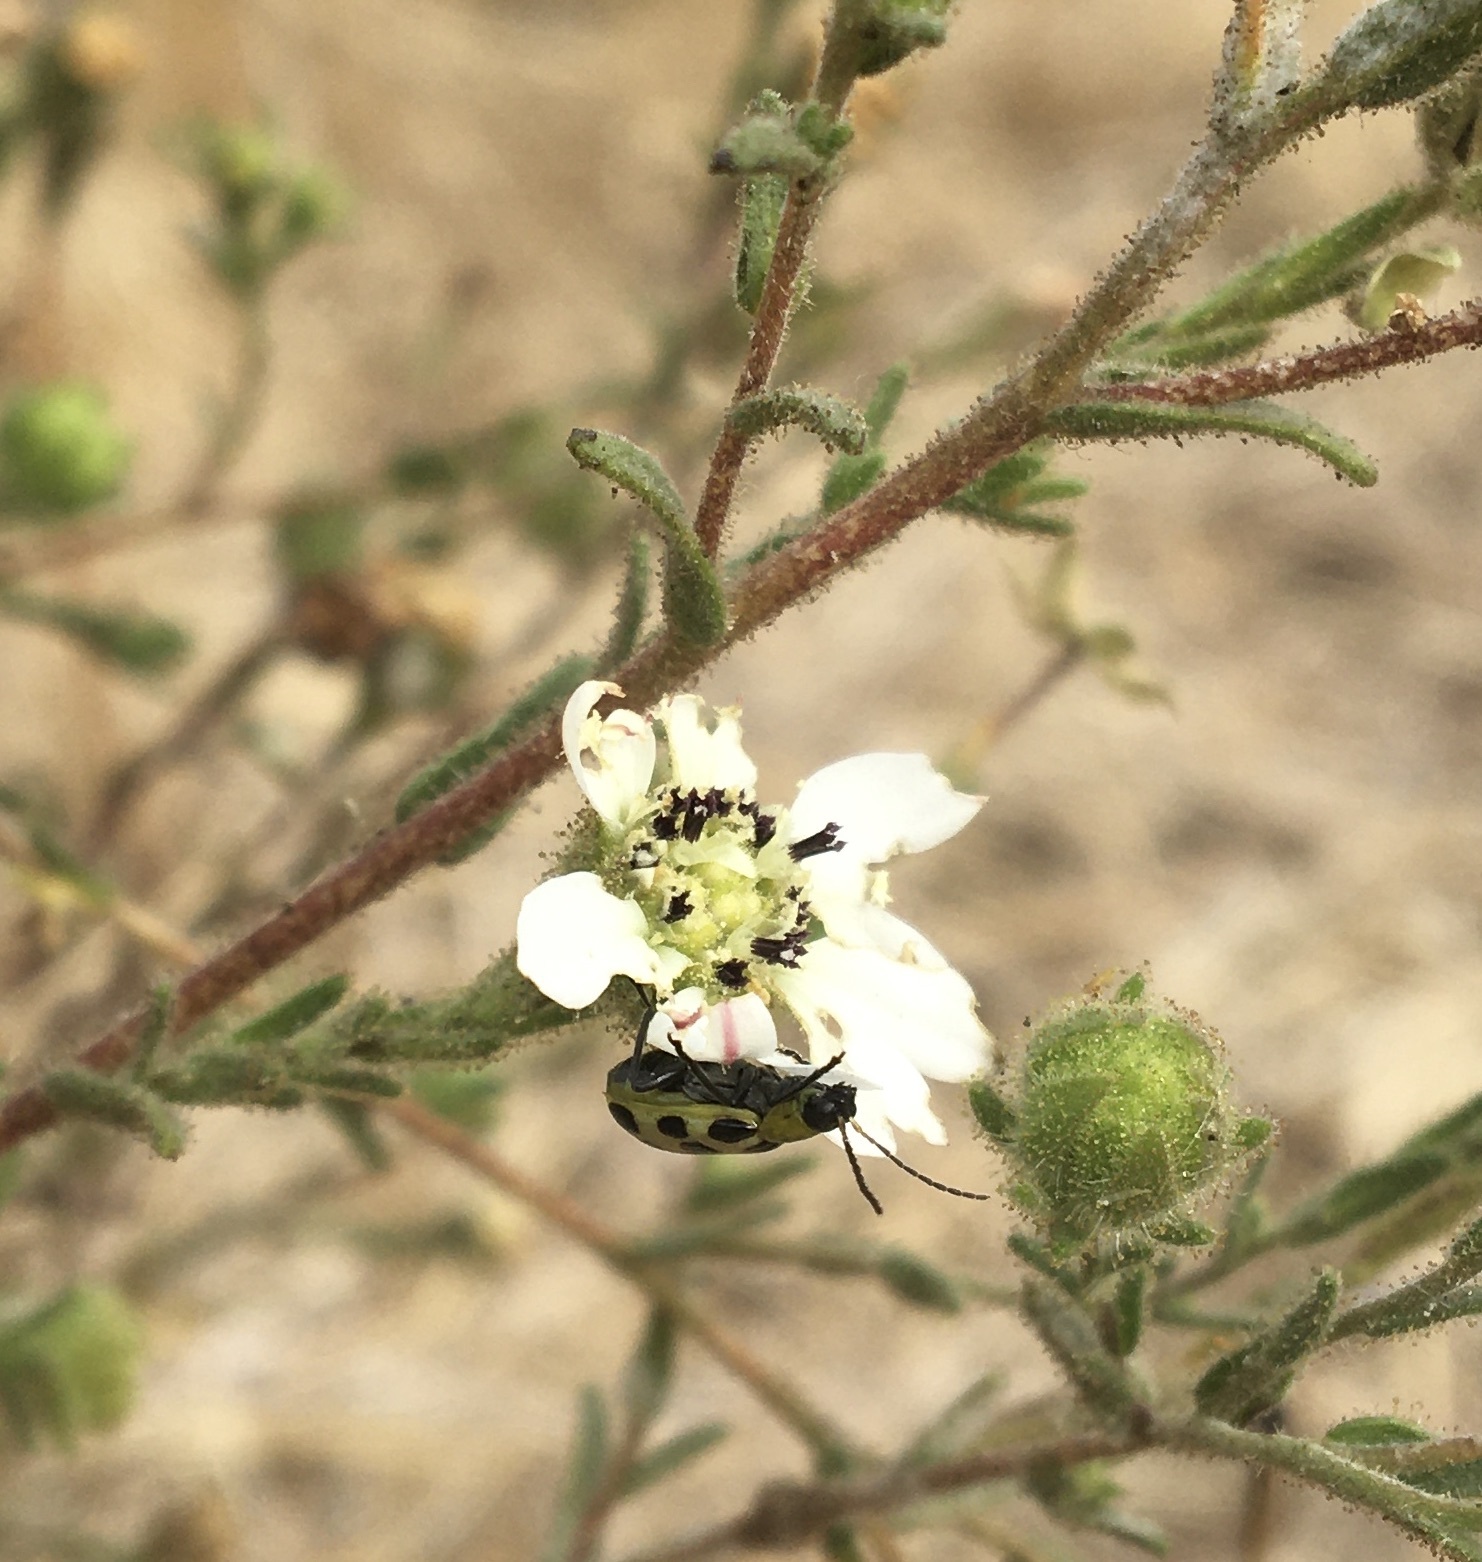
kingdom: Animalia
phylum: Arthropoda
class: Insecta
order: Coleoptera
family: Chrysomelidae
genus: Diabrotica
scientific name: Diabrotica undecimpunctata
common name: Spotted cucumber beetle
